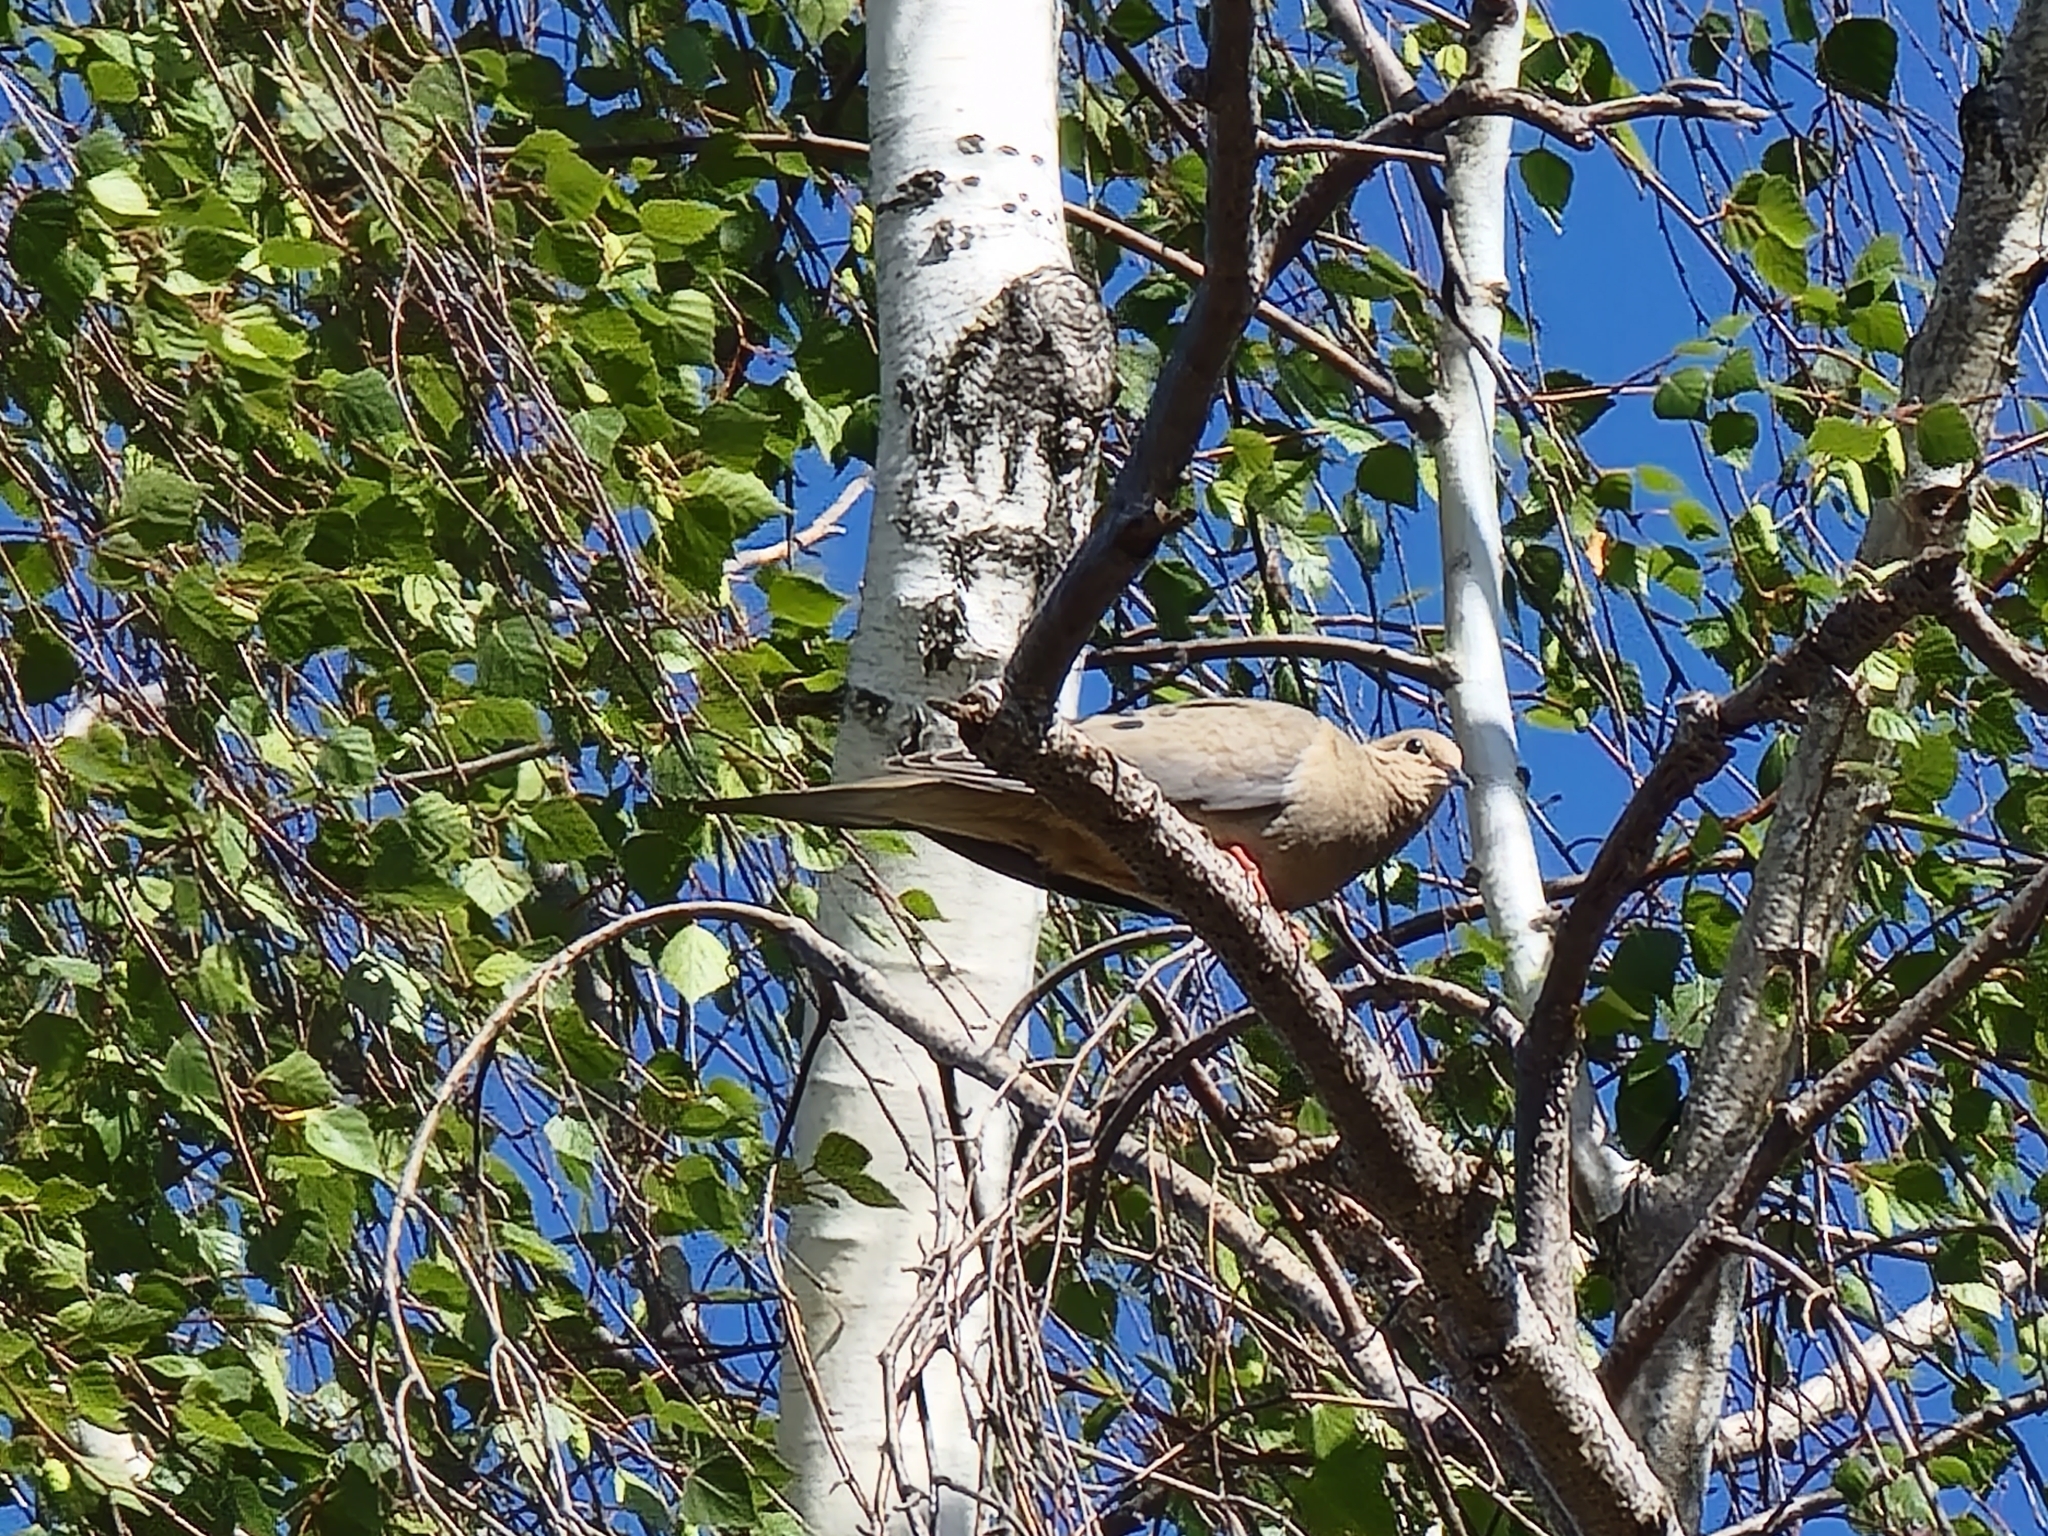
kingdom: Animalia
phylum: Chordata
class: Aves
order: Columbiformes
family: Columbidae
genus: Zenaida
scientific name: Zenaida macroura
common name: Mourning dove
